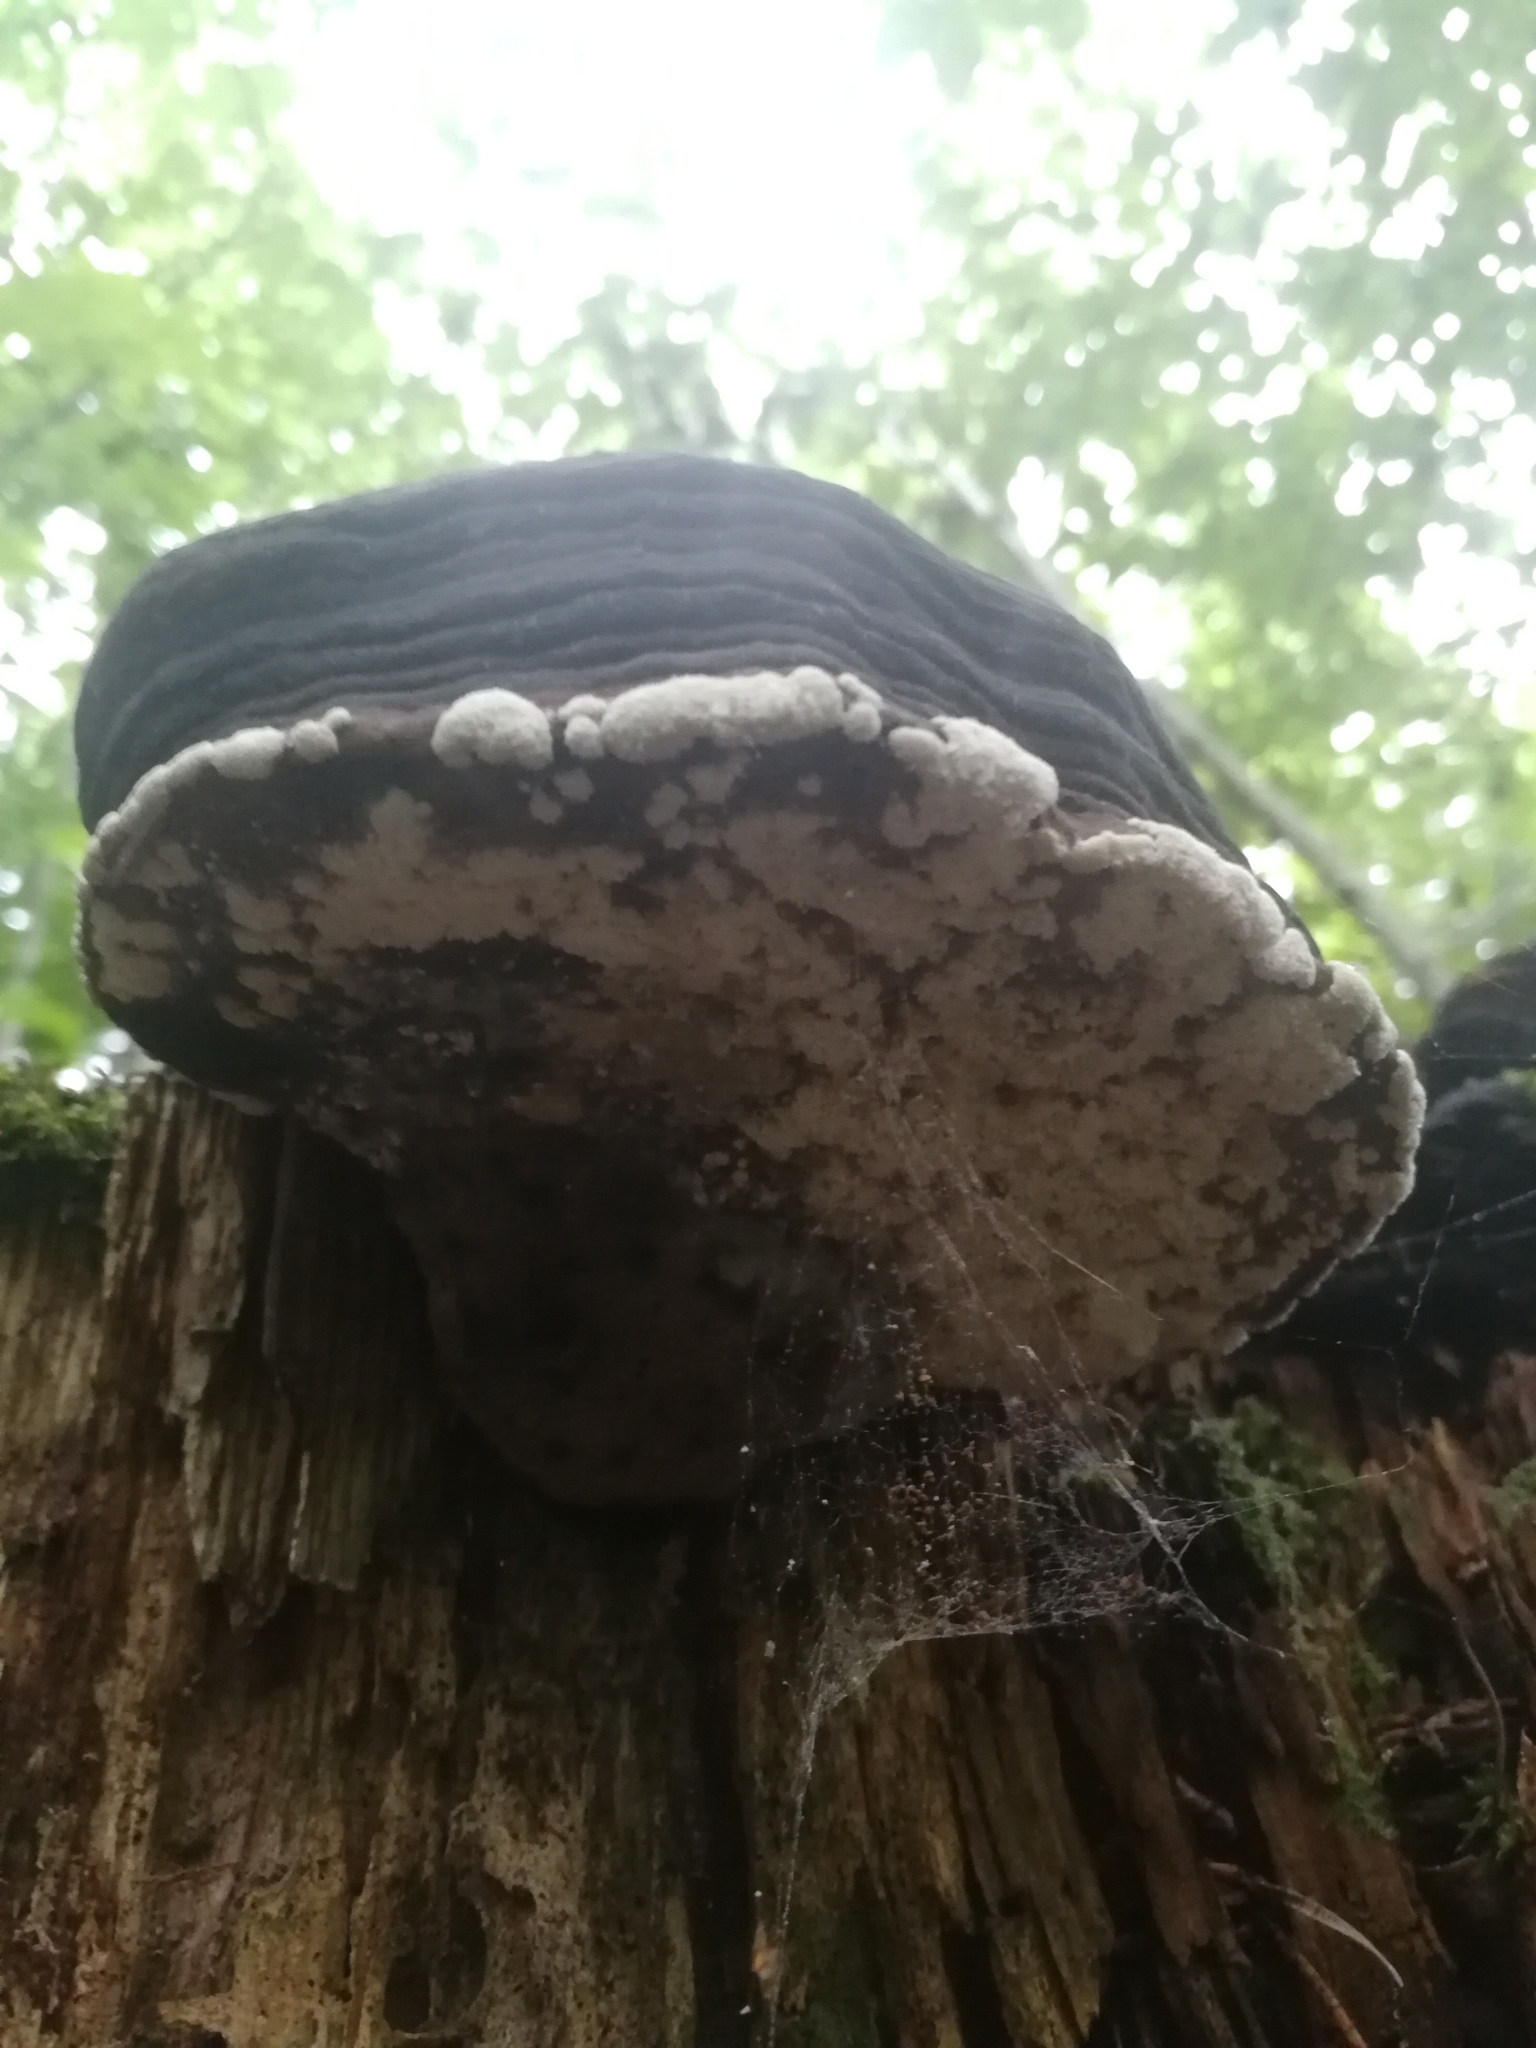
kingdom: Fungi
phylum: Basidiomycota
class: Agaricomycetes
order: Polyporales
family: Fomitopsidaceae
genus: Fomitopsis
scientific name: Fomitopsis pinicola
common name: Red-belted bracket
